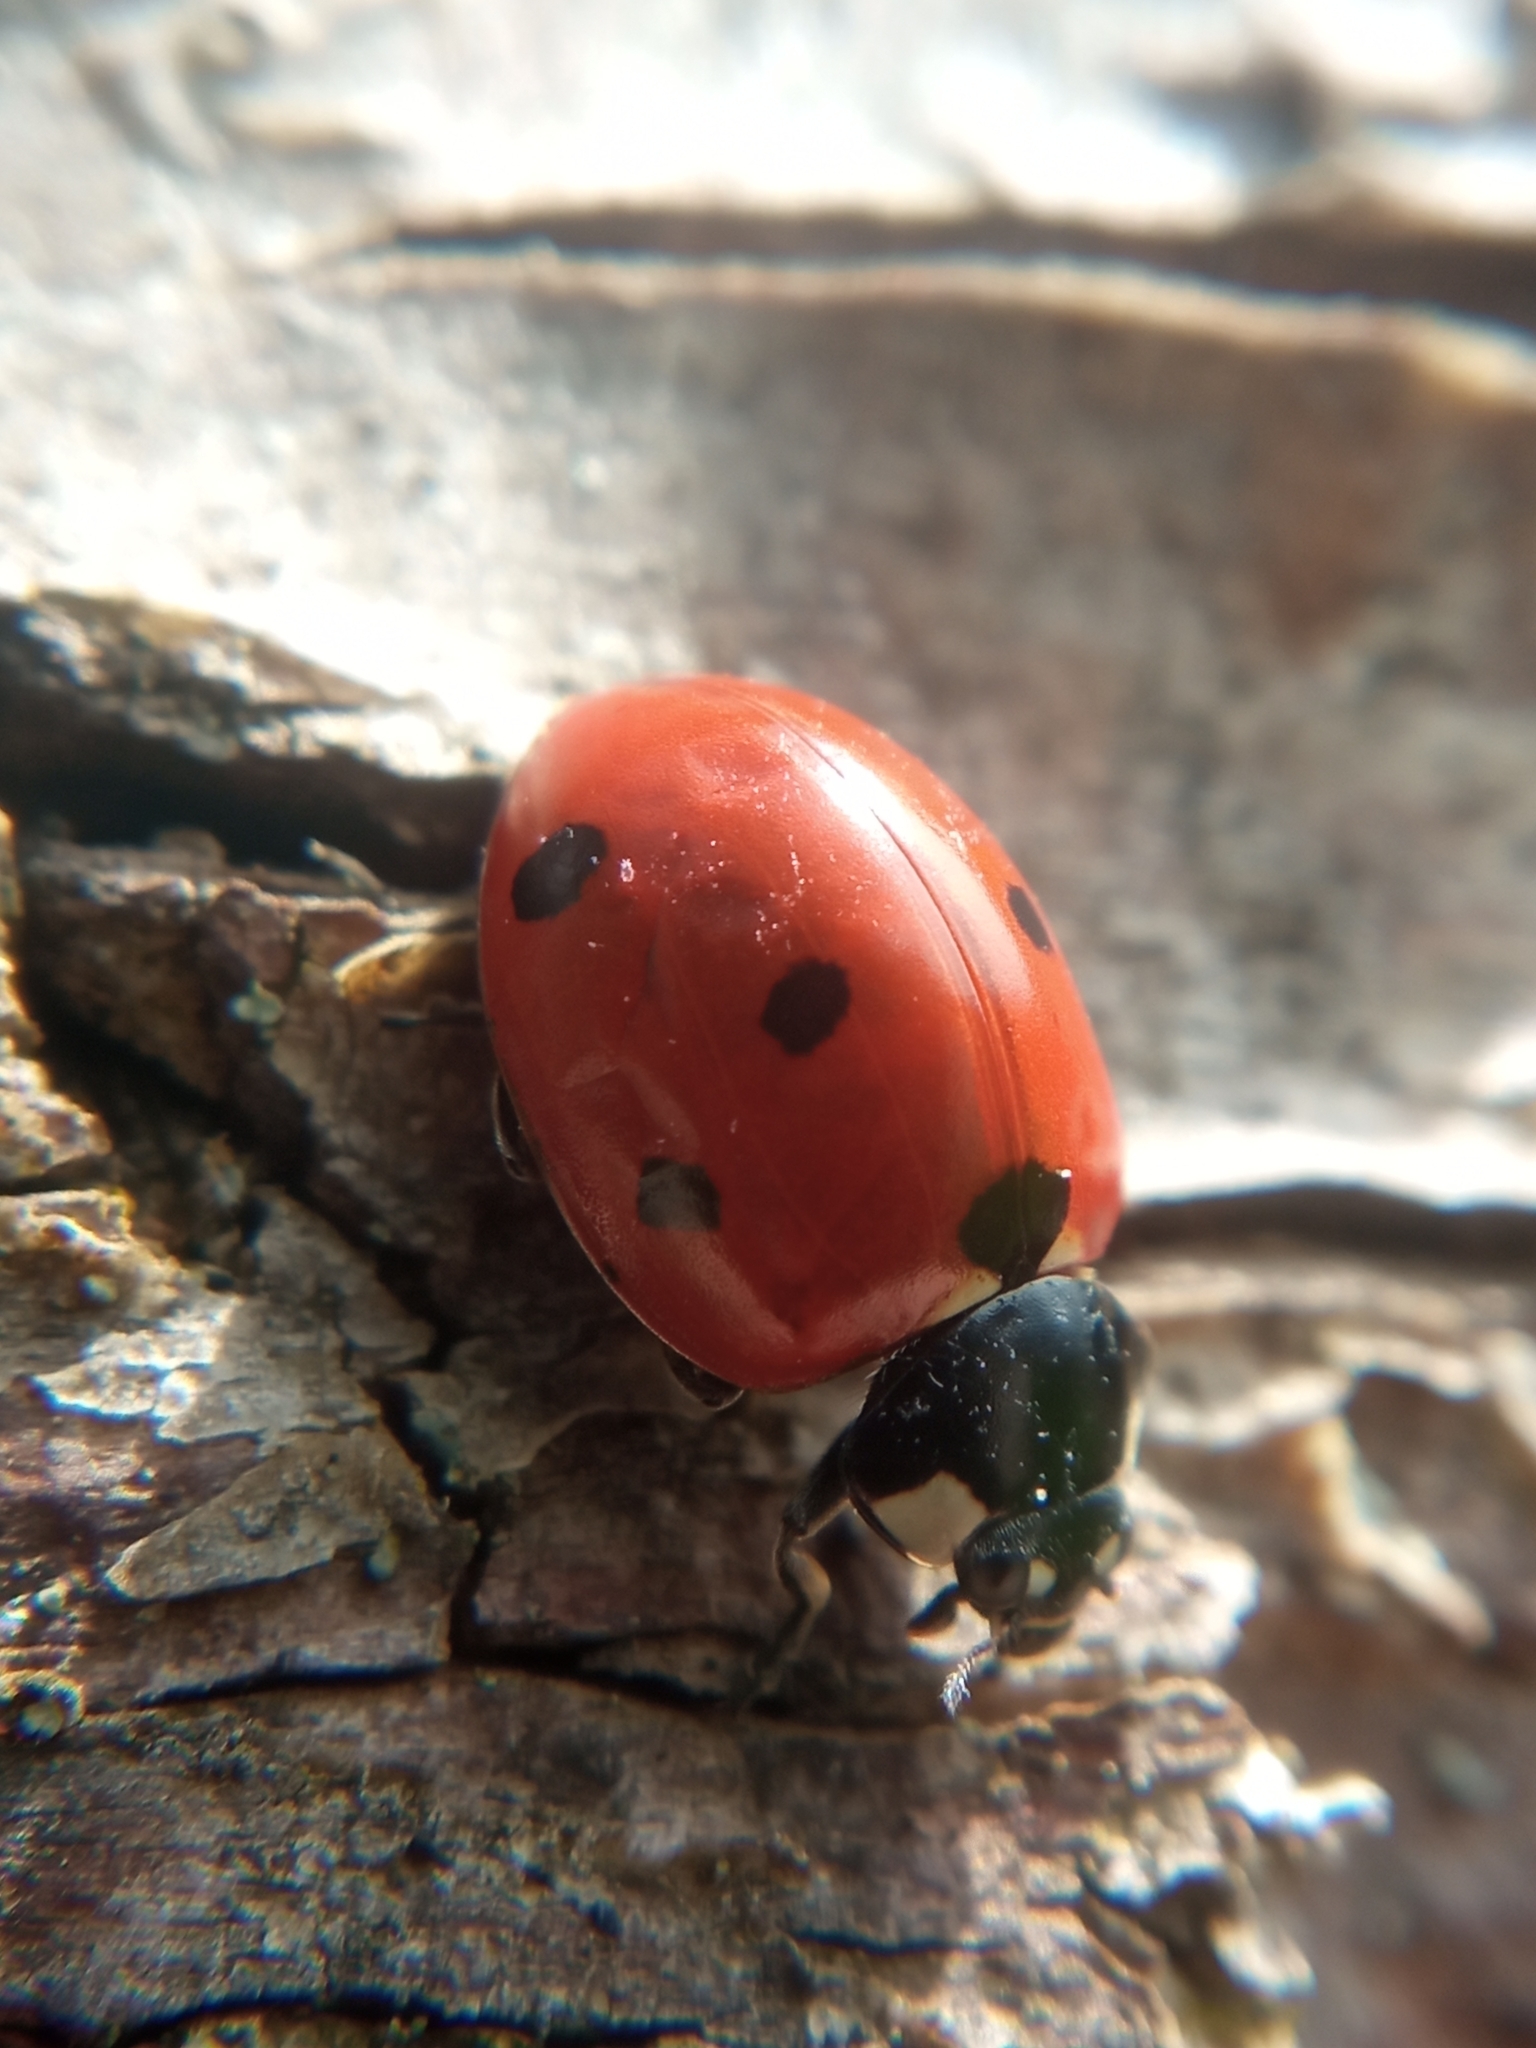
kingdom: Animalia
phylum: Arthropoda
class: Insecta
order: Coleoptera
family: Coccinellidae
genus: Coccinella
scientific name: Coccinella septempunctata
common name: Sevenspotted lady beetle
